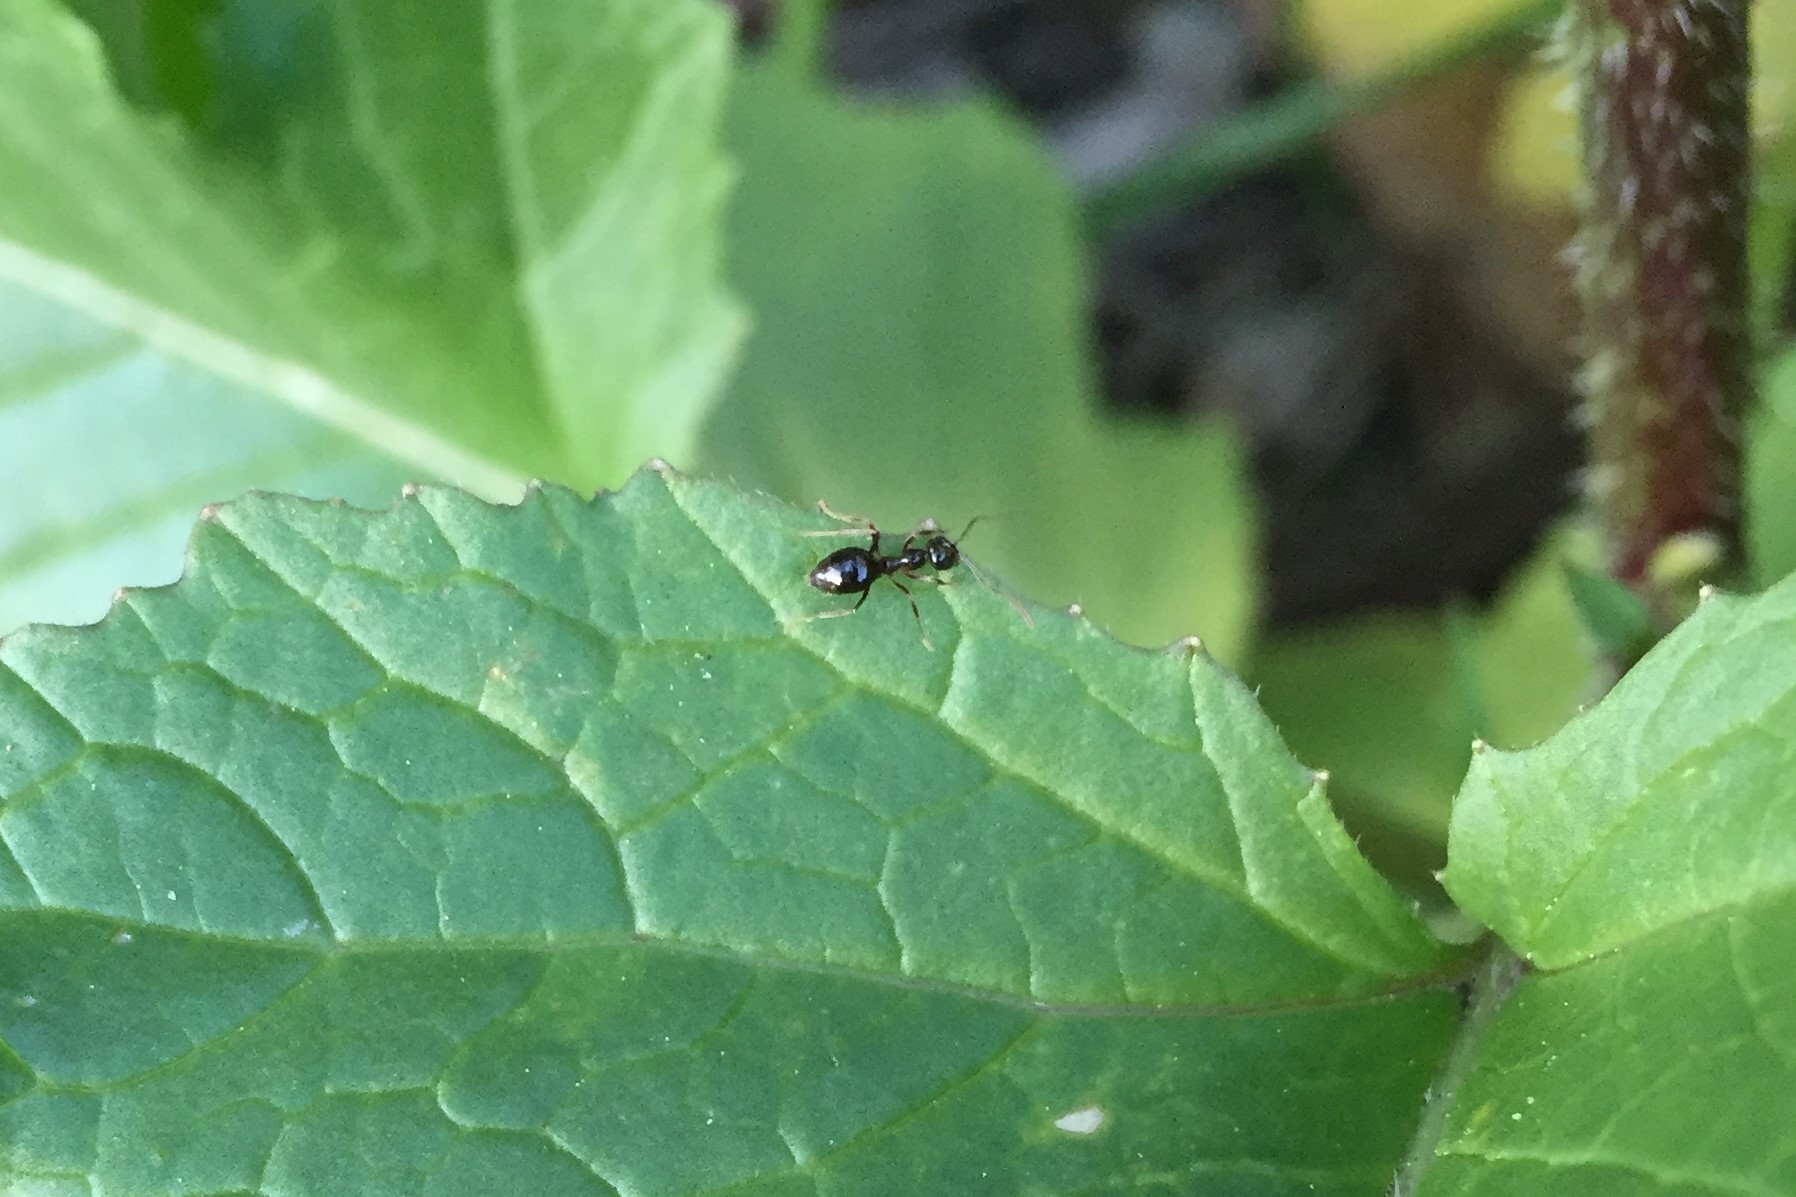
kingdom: Animalia
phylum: Arthropoda
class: Insecta
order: Hymenoptera
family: Formicidae
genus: Prenolepis
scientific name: Prenolepis imparis
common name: Small honey ant
